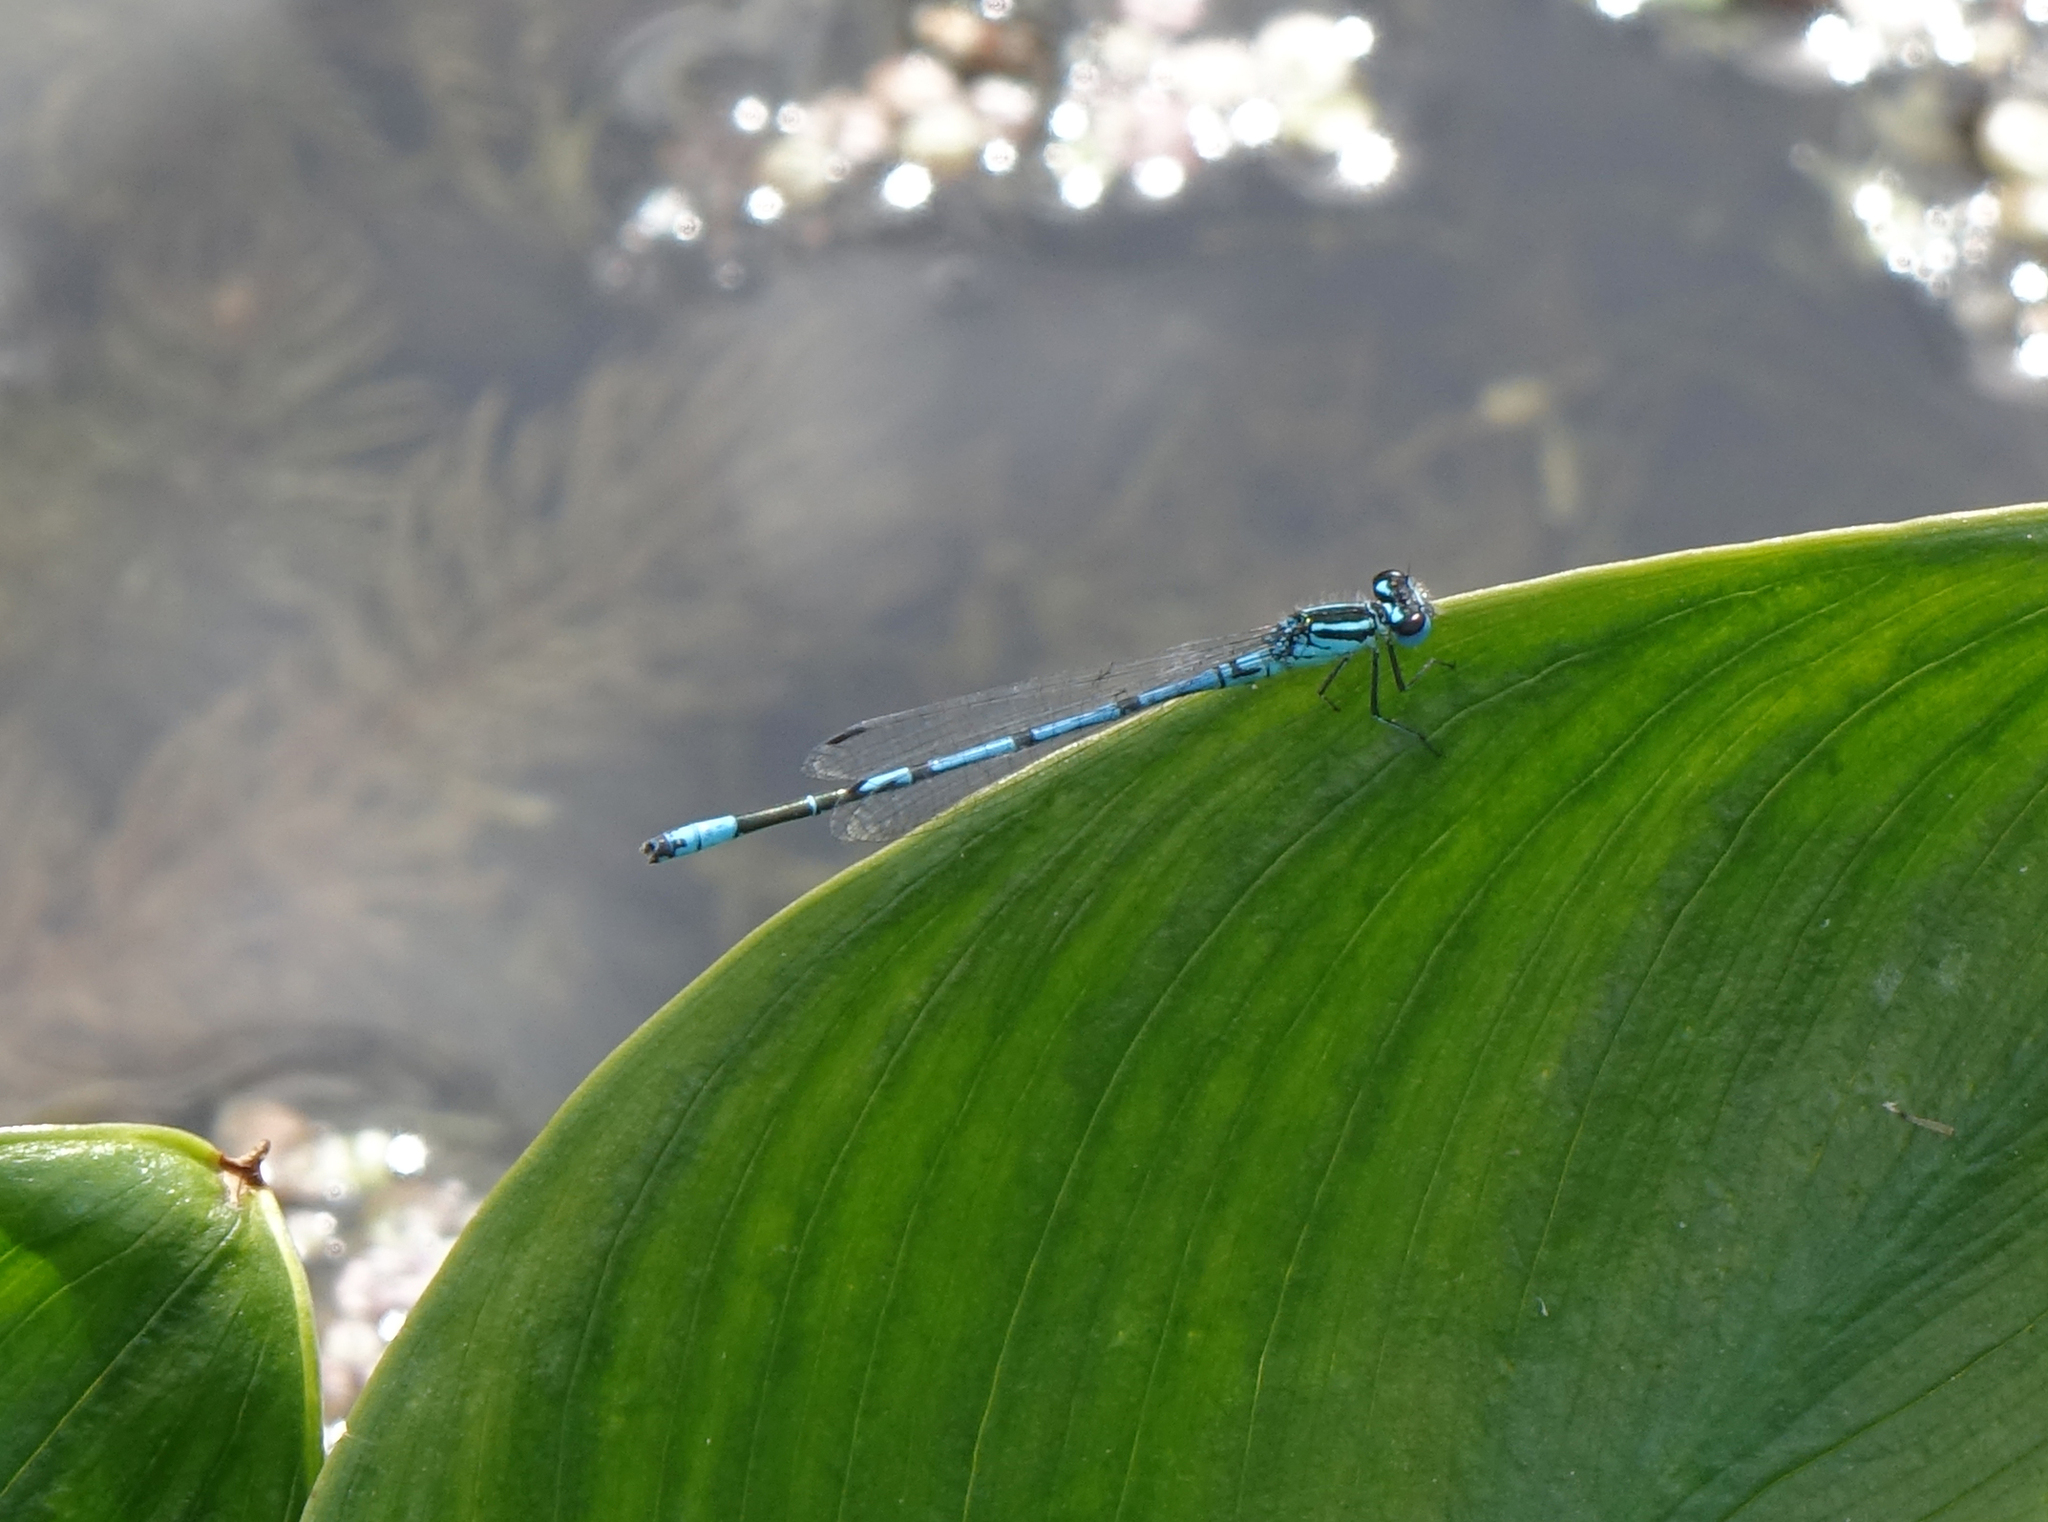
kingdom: Animalia
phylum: Arthropoda
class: Insecta
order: Odonata
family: Coenagrionidae
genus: Coenagrion
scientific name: Coenagrion puella
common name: Azure damselfly
